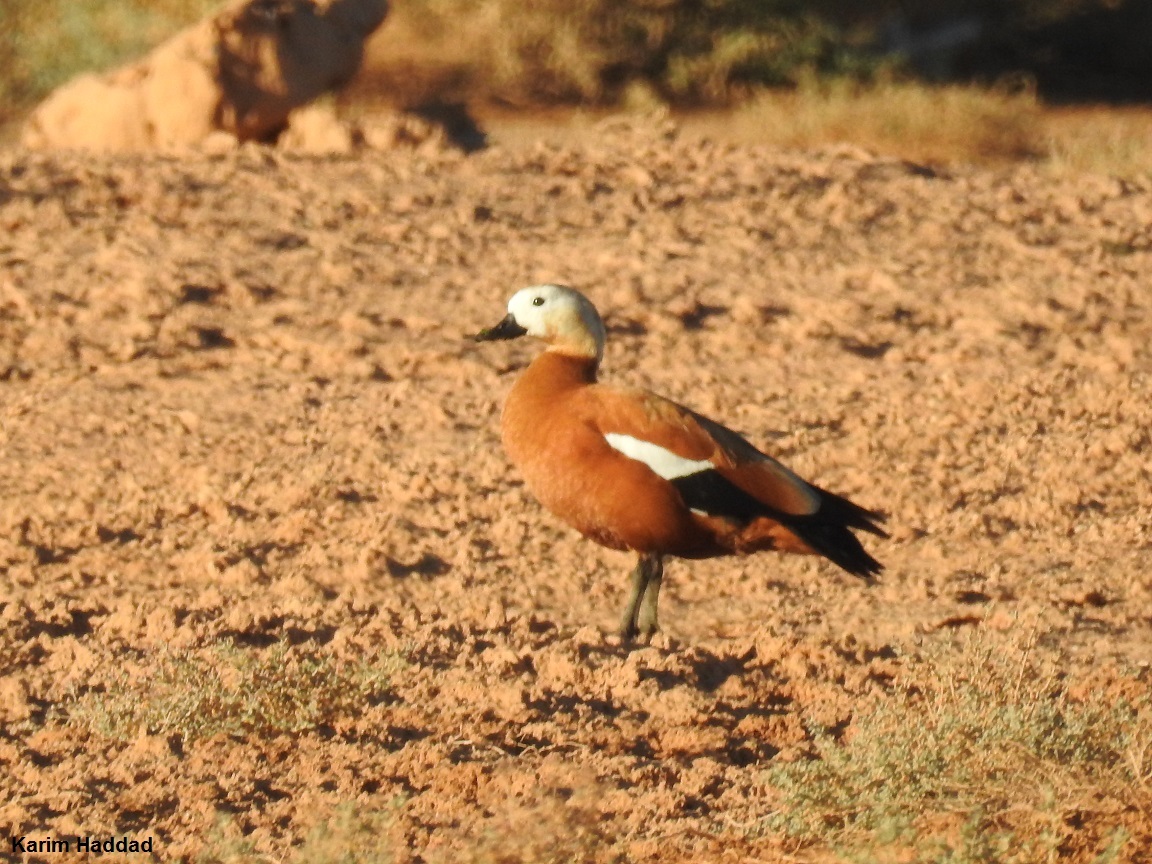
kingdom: Animalia
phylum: Chordata
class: Aves
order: Anseriformes
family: Anatidae
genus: Tadorna
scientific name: Tadorna ferruginea
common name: Ruddy shelduck
